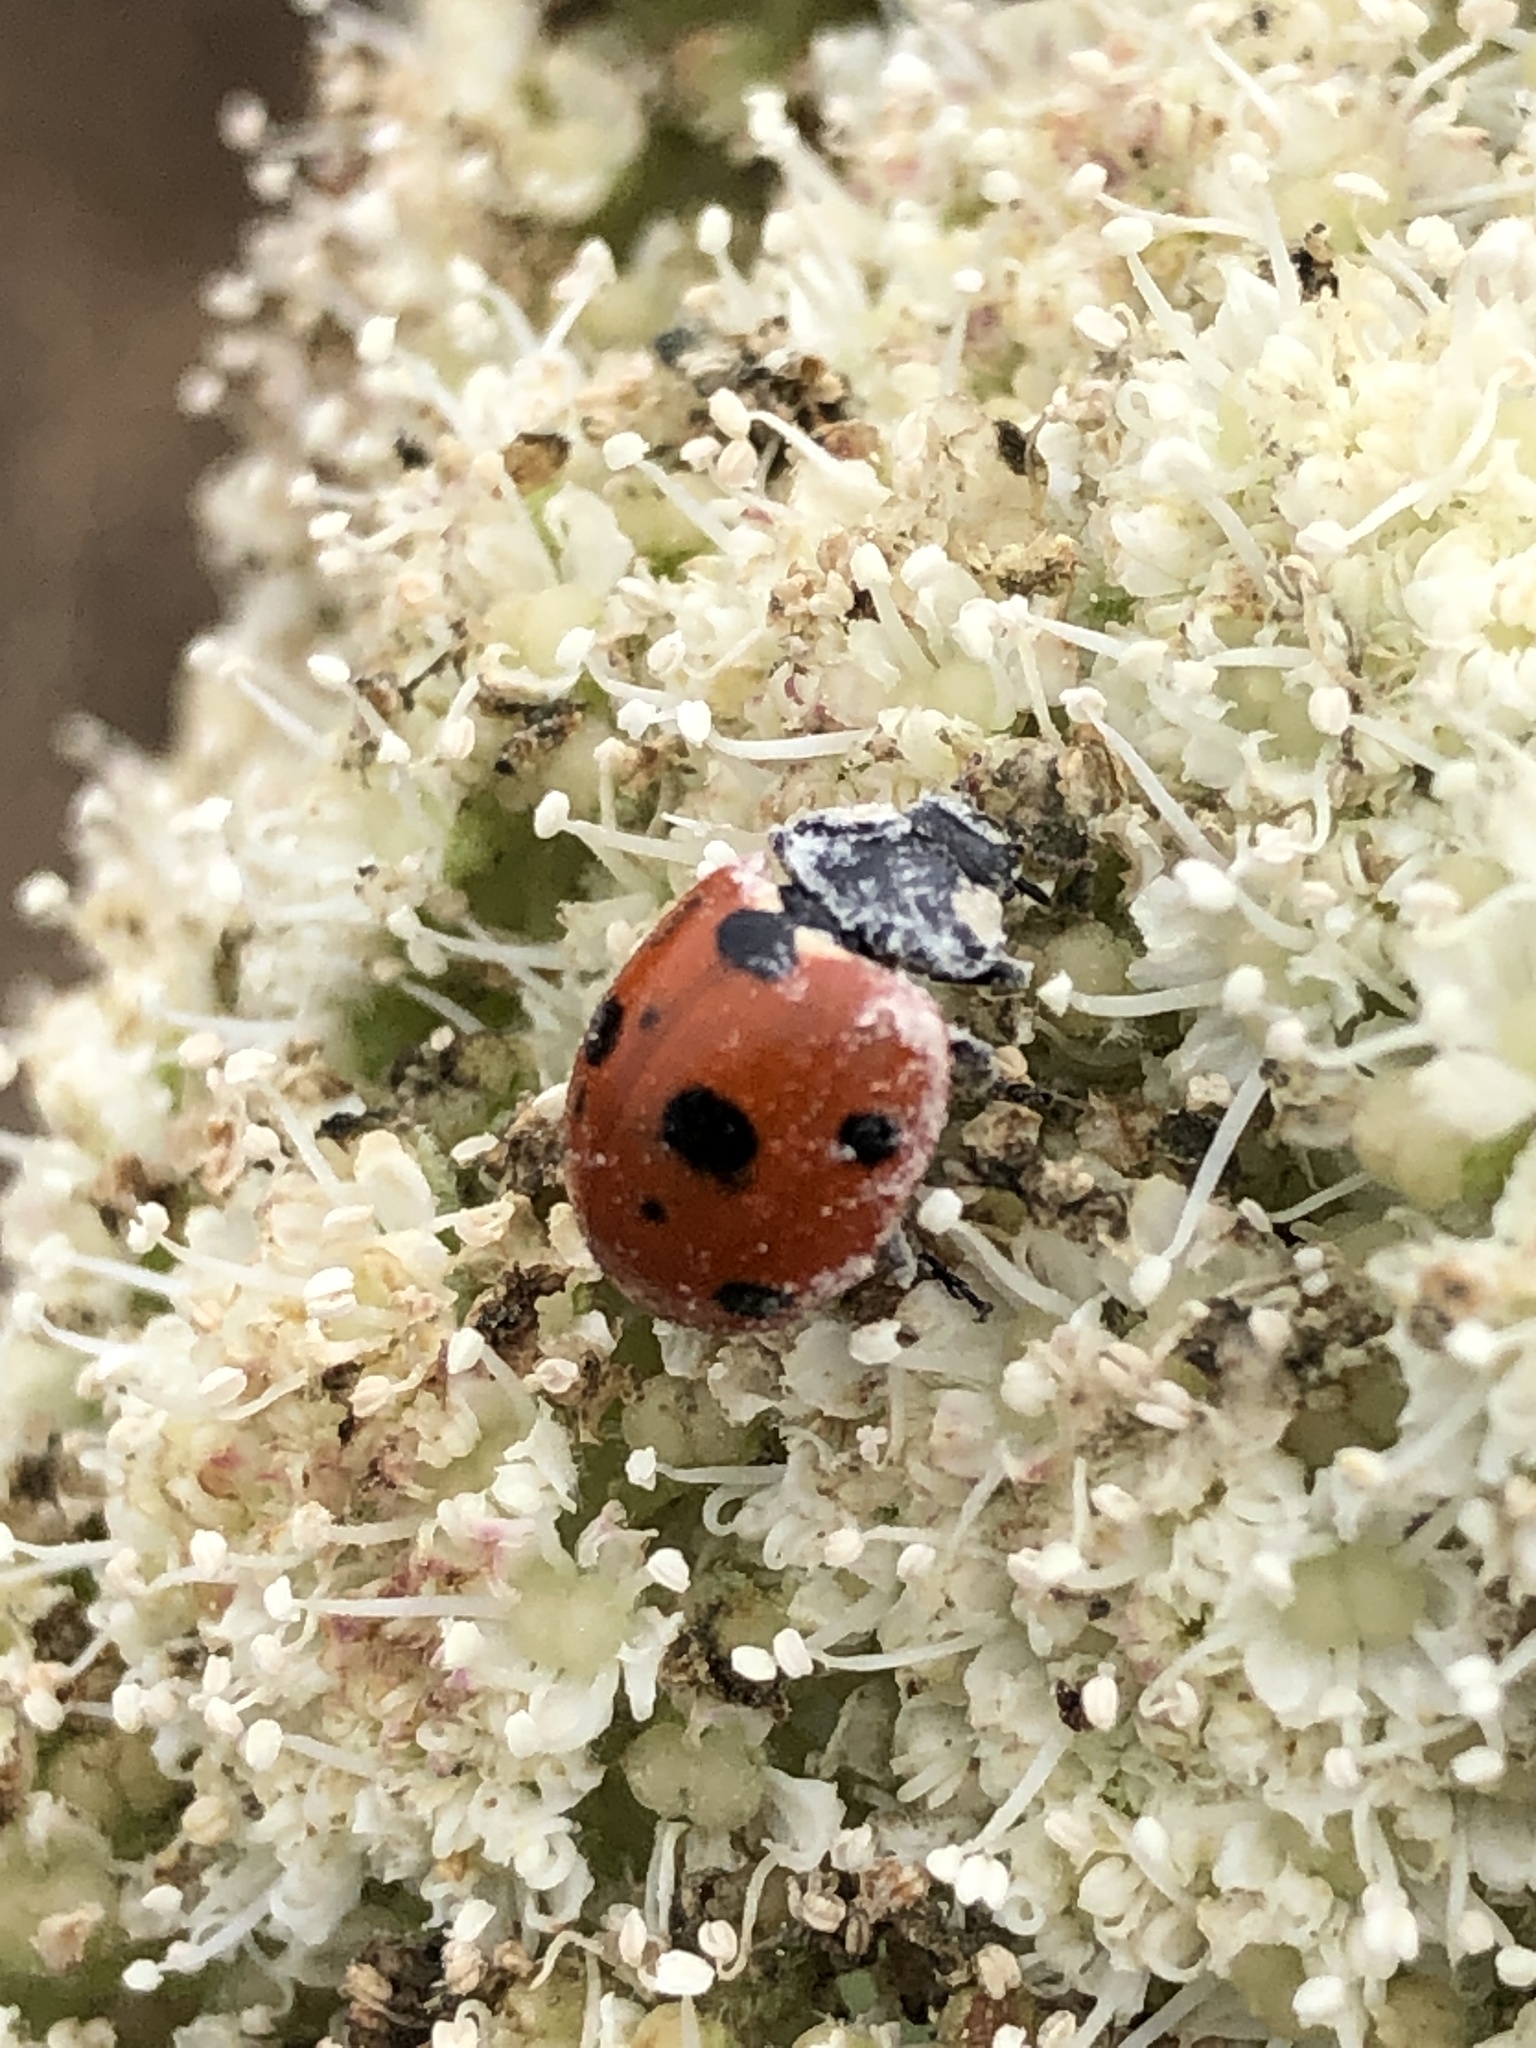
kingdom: Animalia
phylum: Arthropoda
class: Insecta
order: Coleoptera
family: Coccinellidae
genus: Coccinella
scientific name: Coccinella septempunctata
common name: Sevenspotted lady beetle
